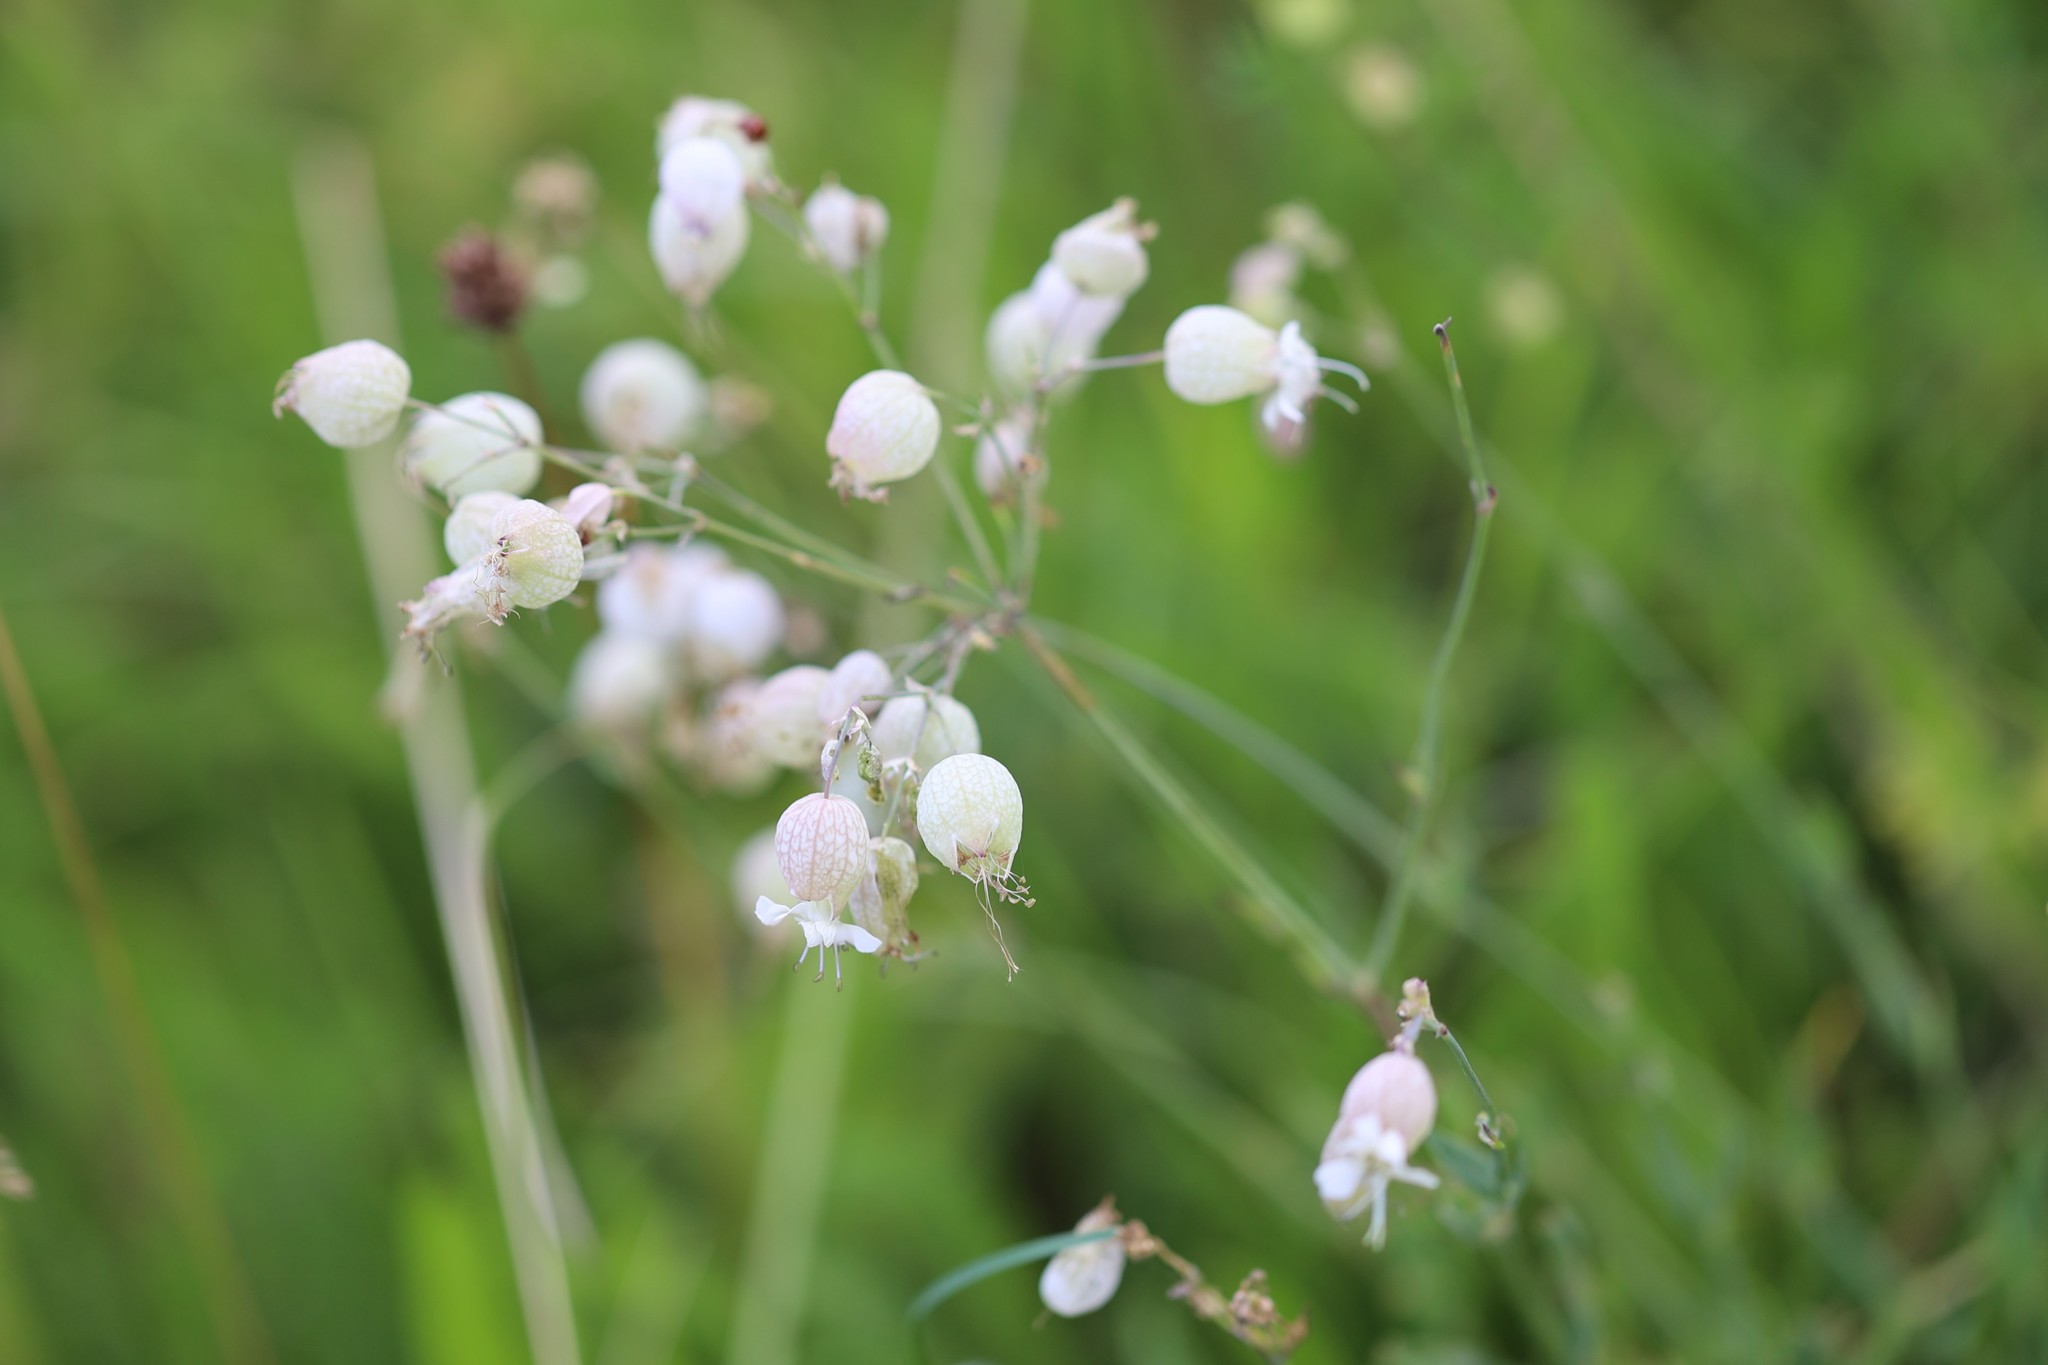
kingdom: Plantae
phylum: Tracheophyta
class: Magnoliopsida
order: Caryophyllales
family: Caryophyllaceae
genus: Silene
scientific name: Silene vulgaris
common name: Bladder campion
